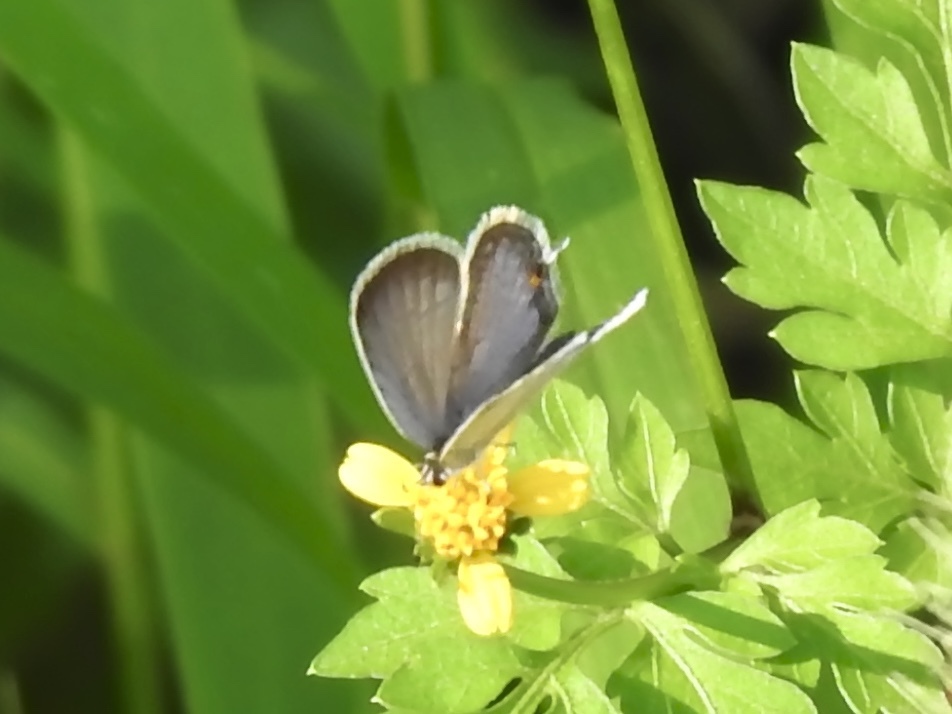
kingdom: Animalia
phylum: Arthropoda
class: Insecta
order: Lepidoptera
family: Lycaenidae
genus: Elkalyce
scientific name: Elkalyce comyntas
